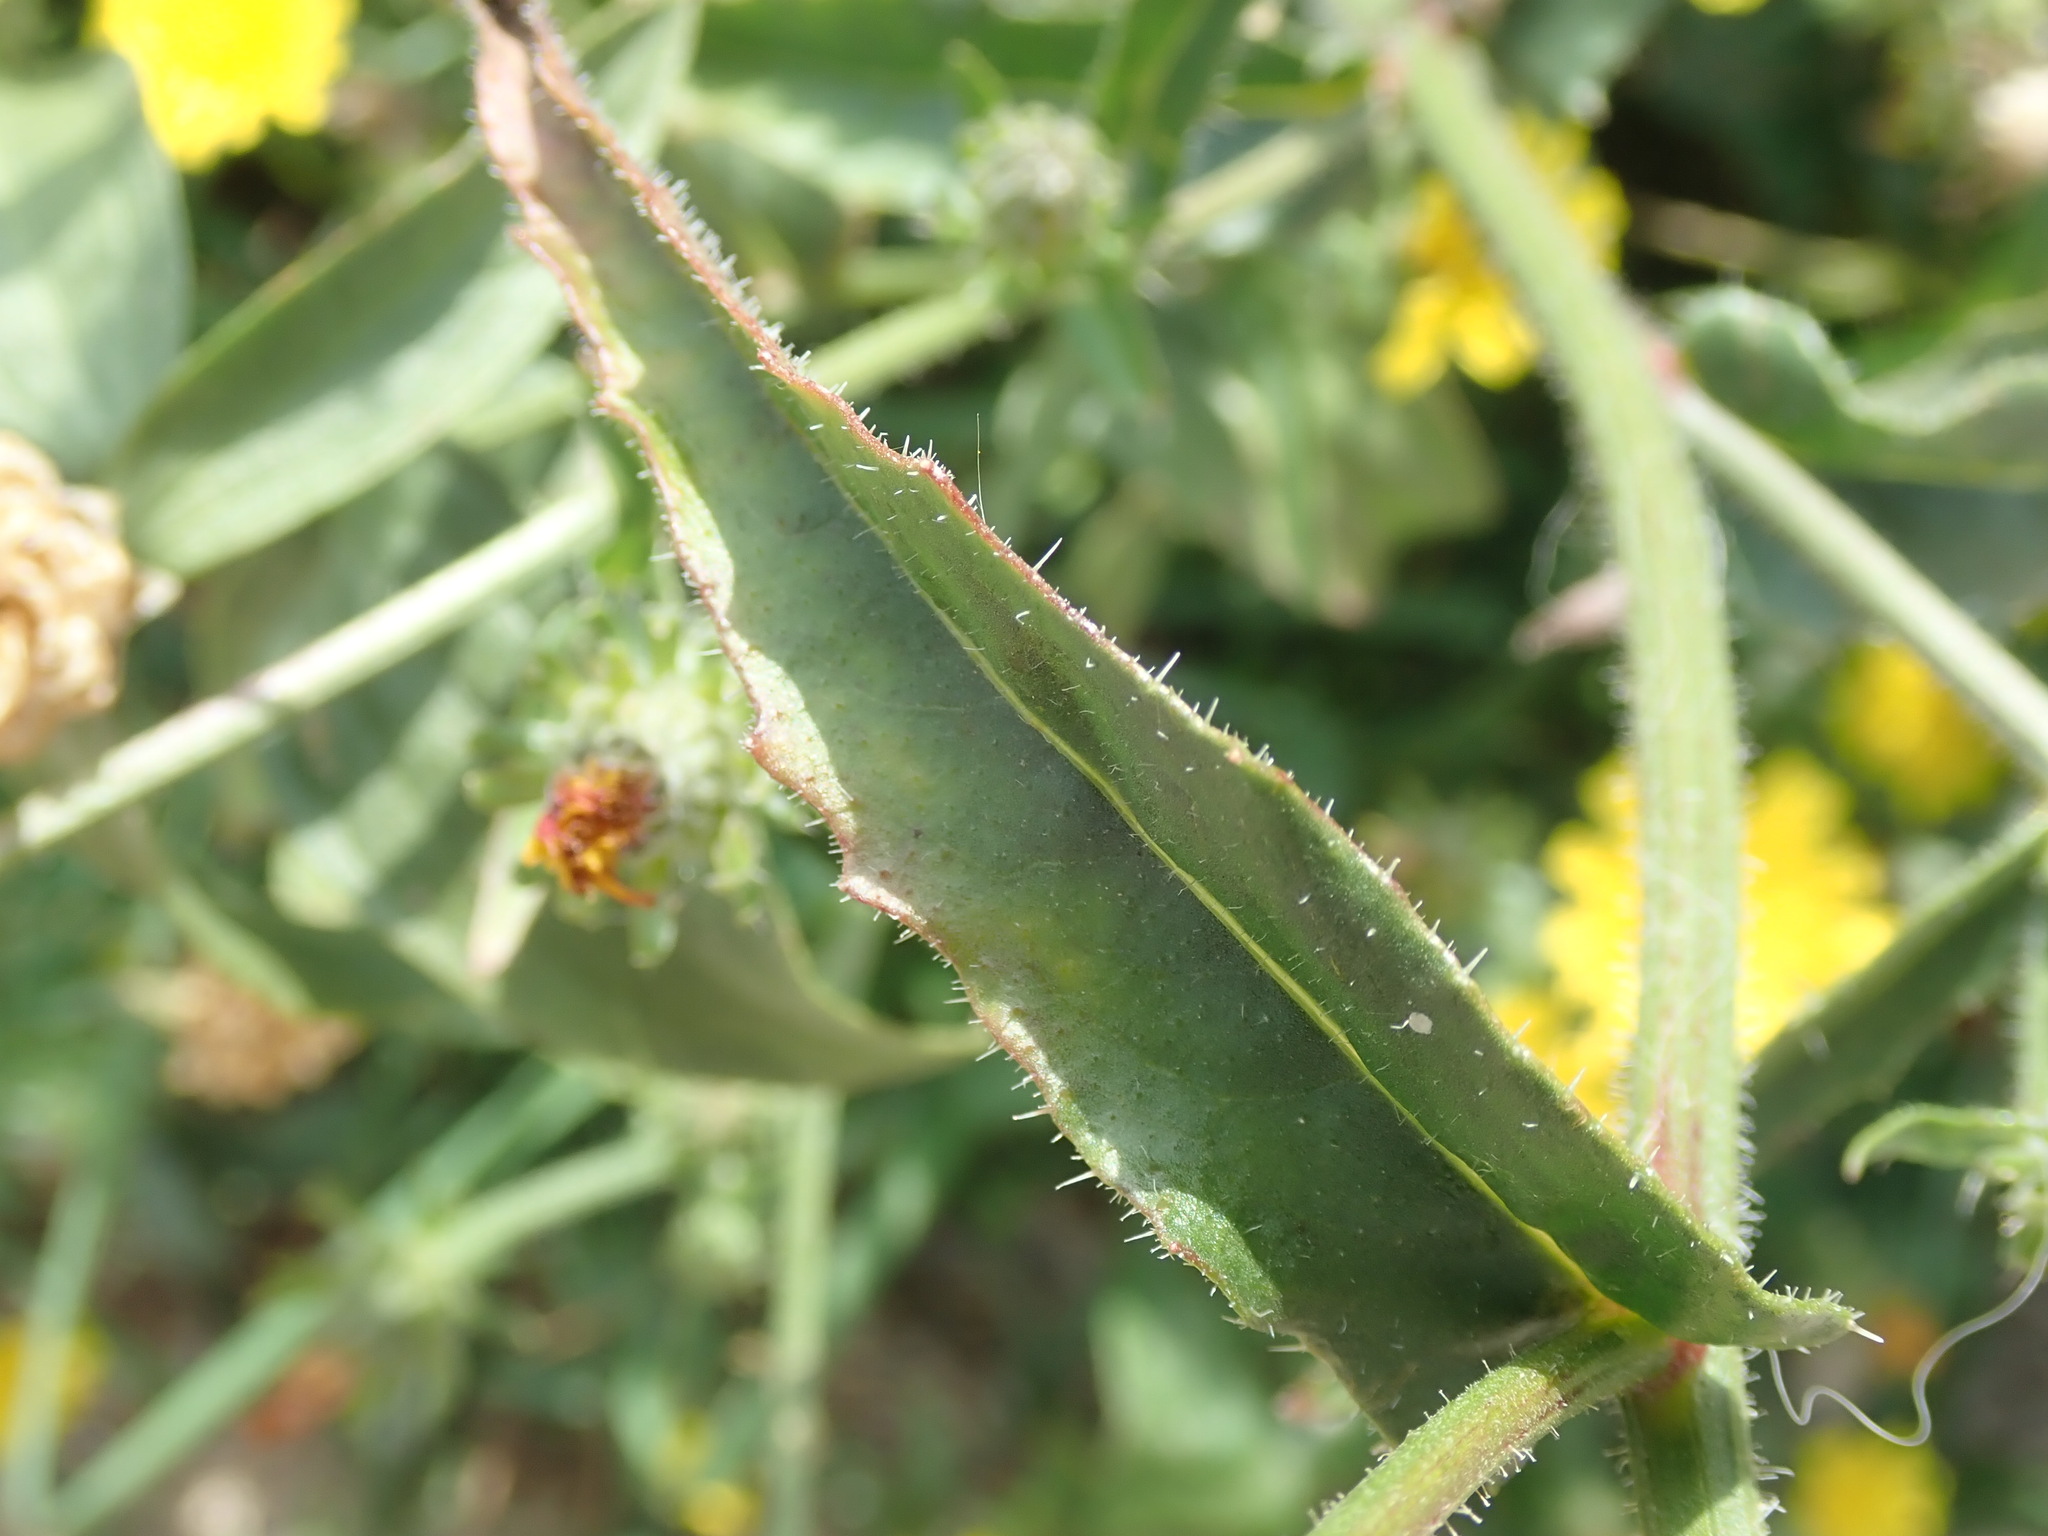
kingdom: Plantae
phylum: Tracheophyta
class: Magnoliopsida
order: Asterales
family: Asteraceae
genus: Picris
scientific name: Picris hieracioides
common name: Hawkweed oxtongue
